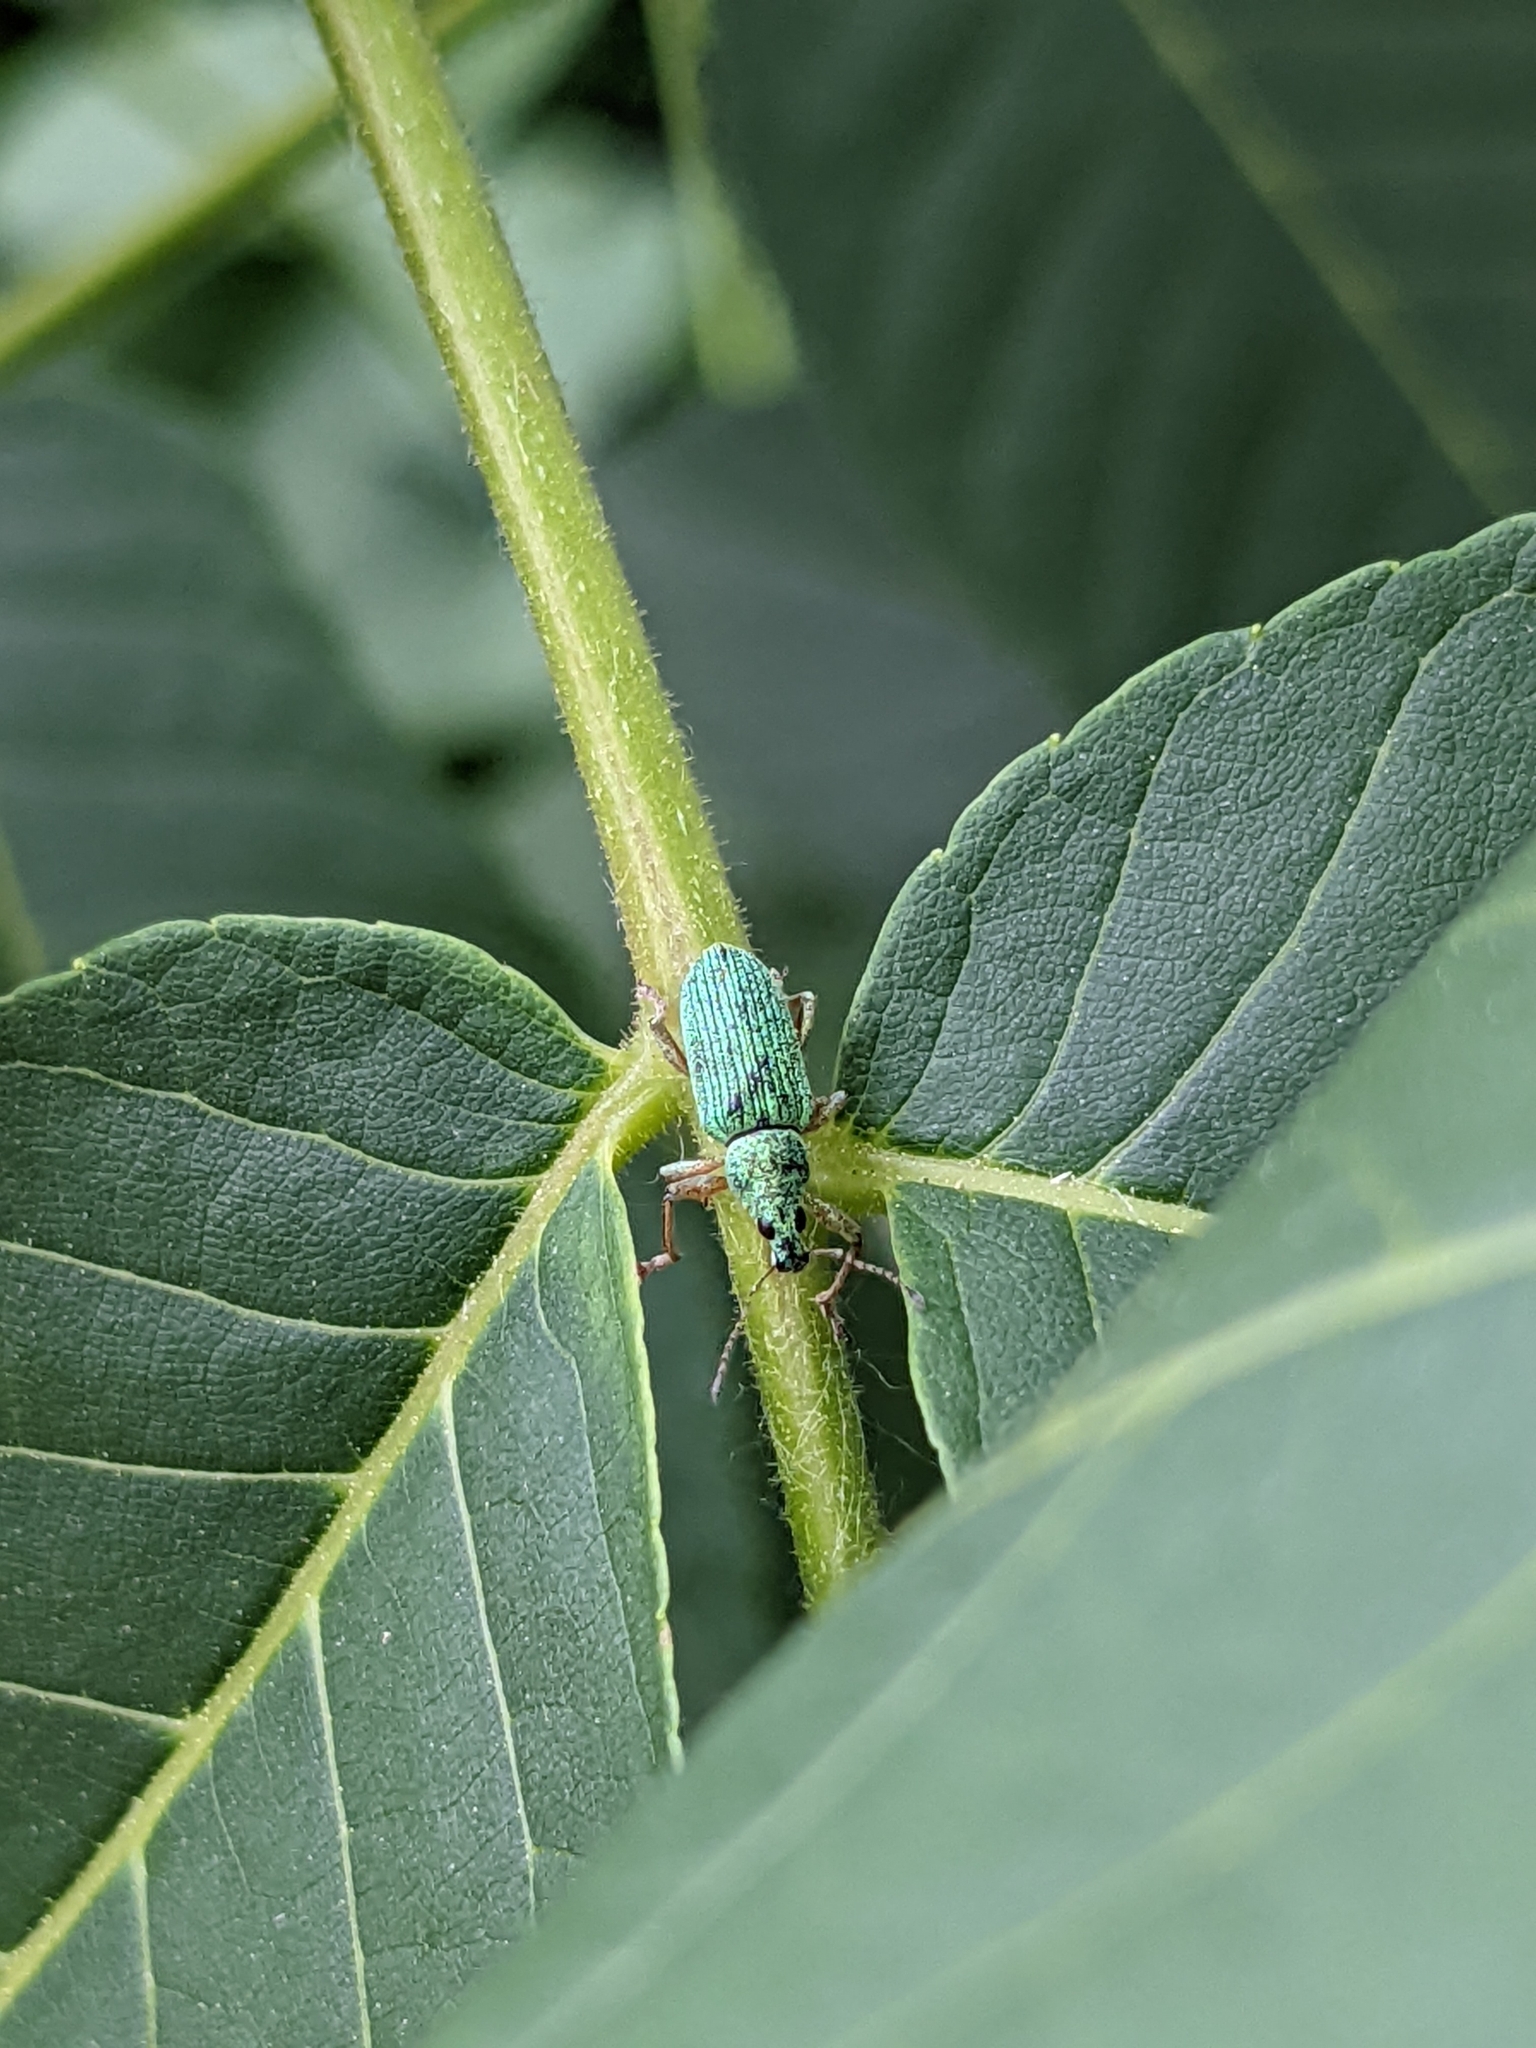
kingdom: Animalia
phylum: Arthropoda
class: Insecta
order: Coleoptera
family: Curculionidae
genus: Polydrusus
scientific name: Polydrusus formosus
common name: Weevil
